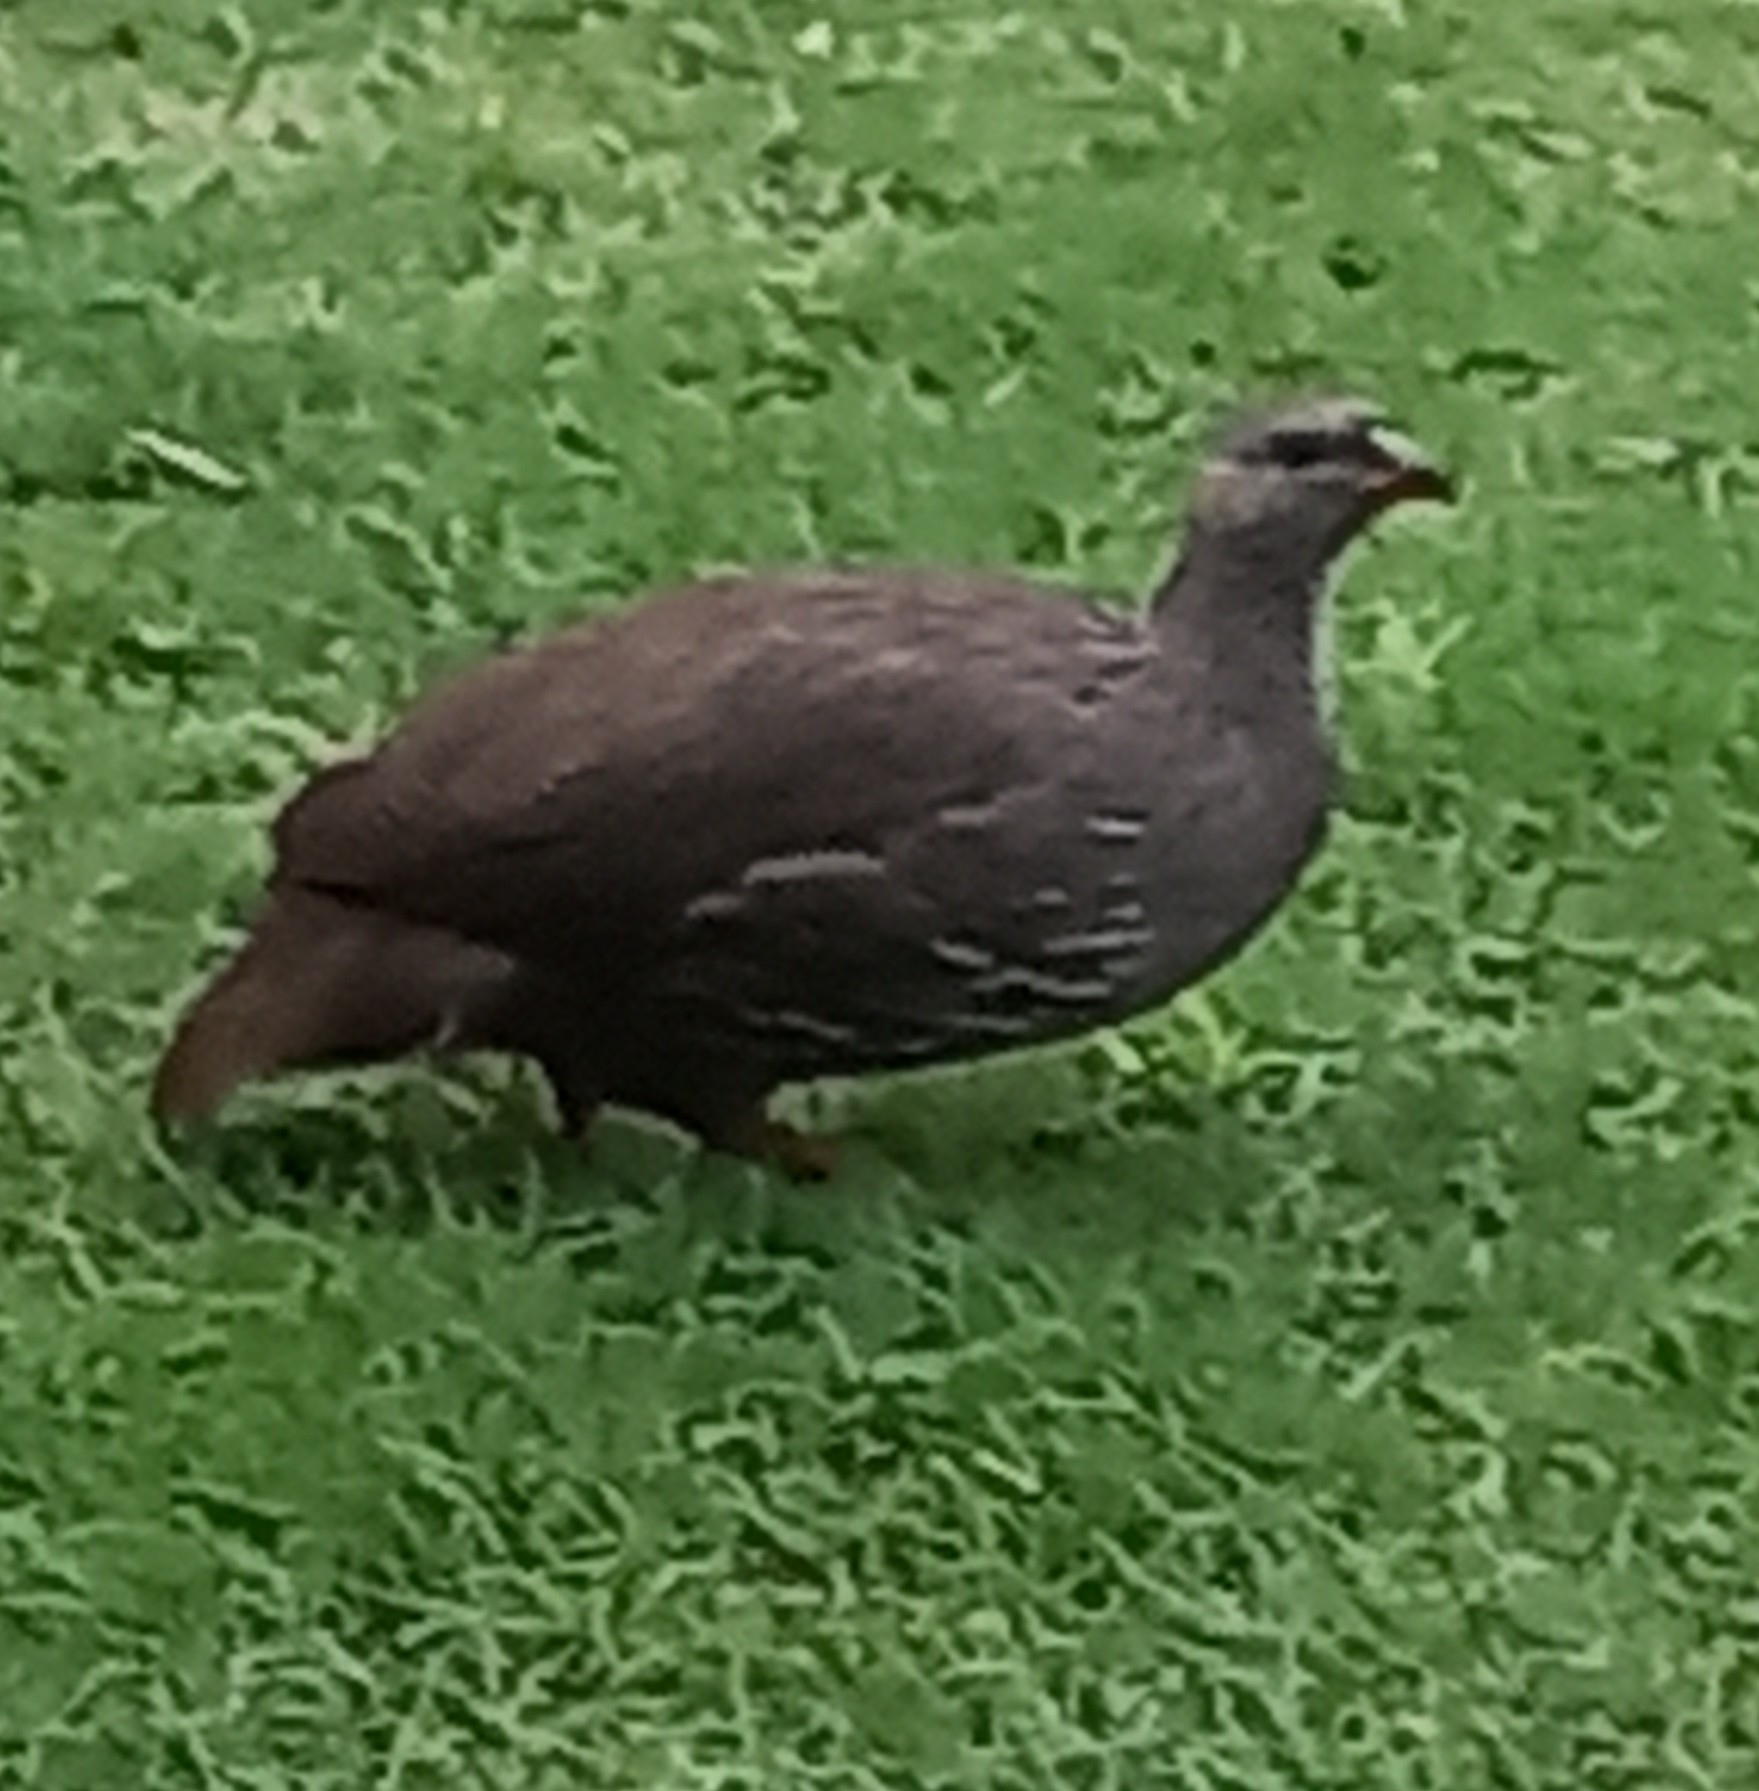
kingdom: Animalia
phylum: Chordata
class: Aves
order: Galliformes
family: Phasianidae
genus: Pternistis
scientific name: Pternistis capensis
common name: Cape spurfowl
